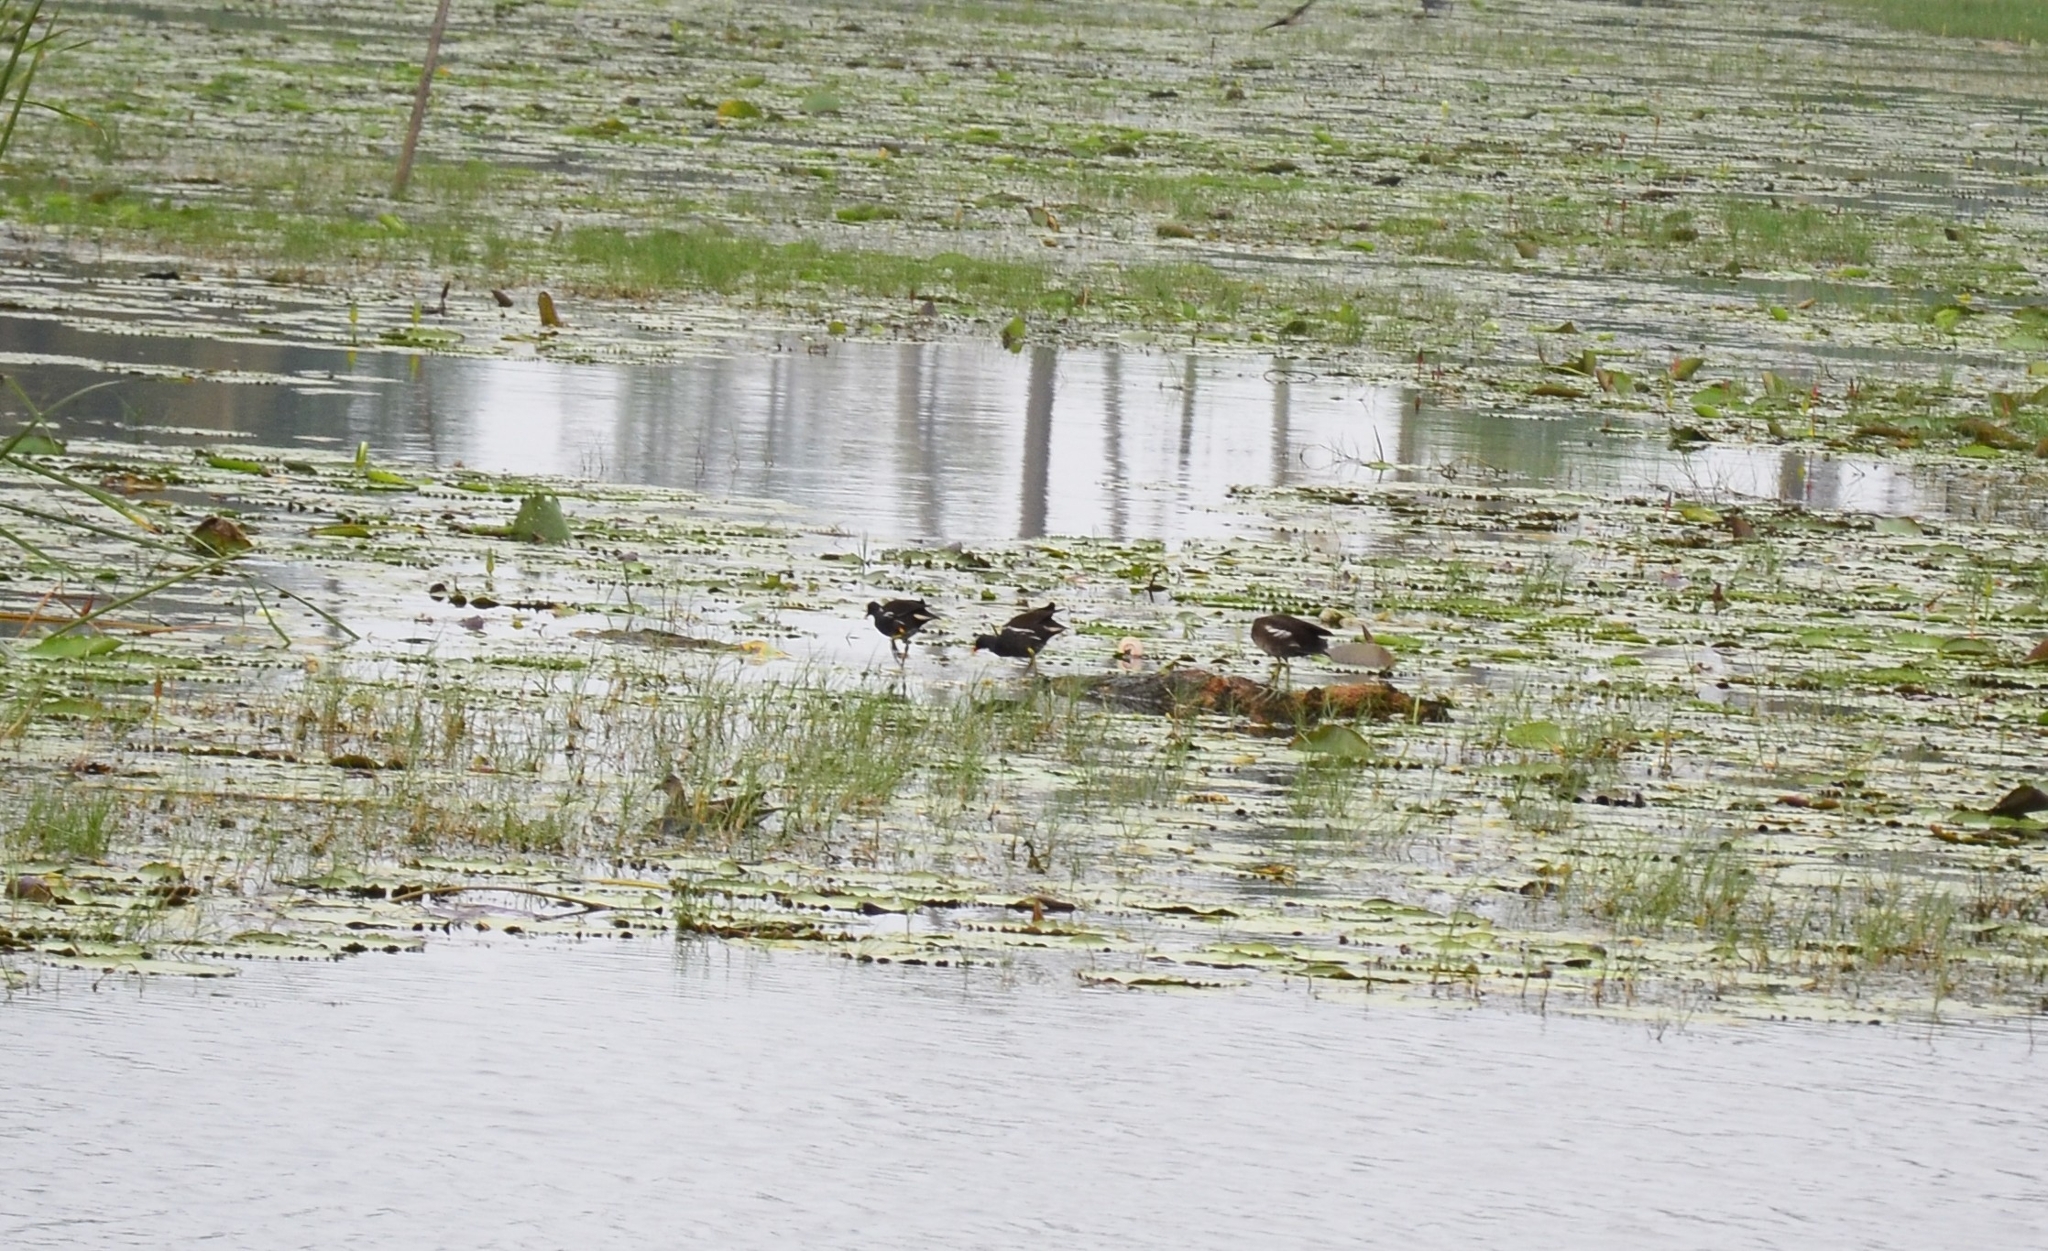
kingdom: Animalia
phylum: Chordata
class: Aves
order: Gruiformes
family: Rallidae
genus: Gallinula
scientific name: Gallinula chloropus
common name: Common moorhen
